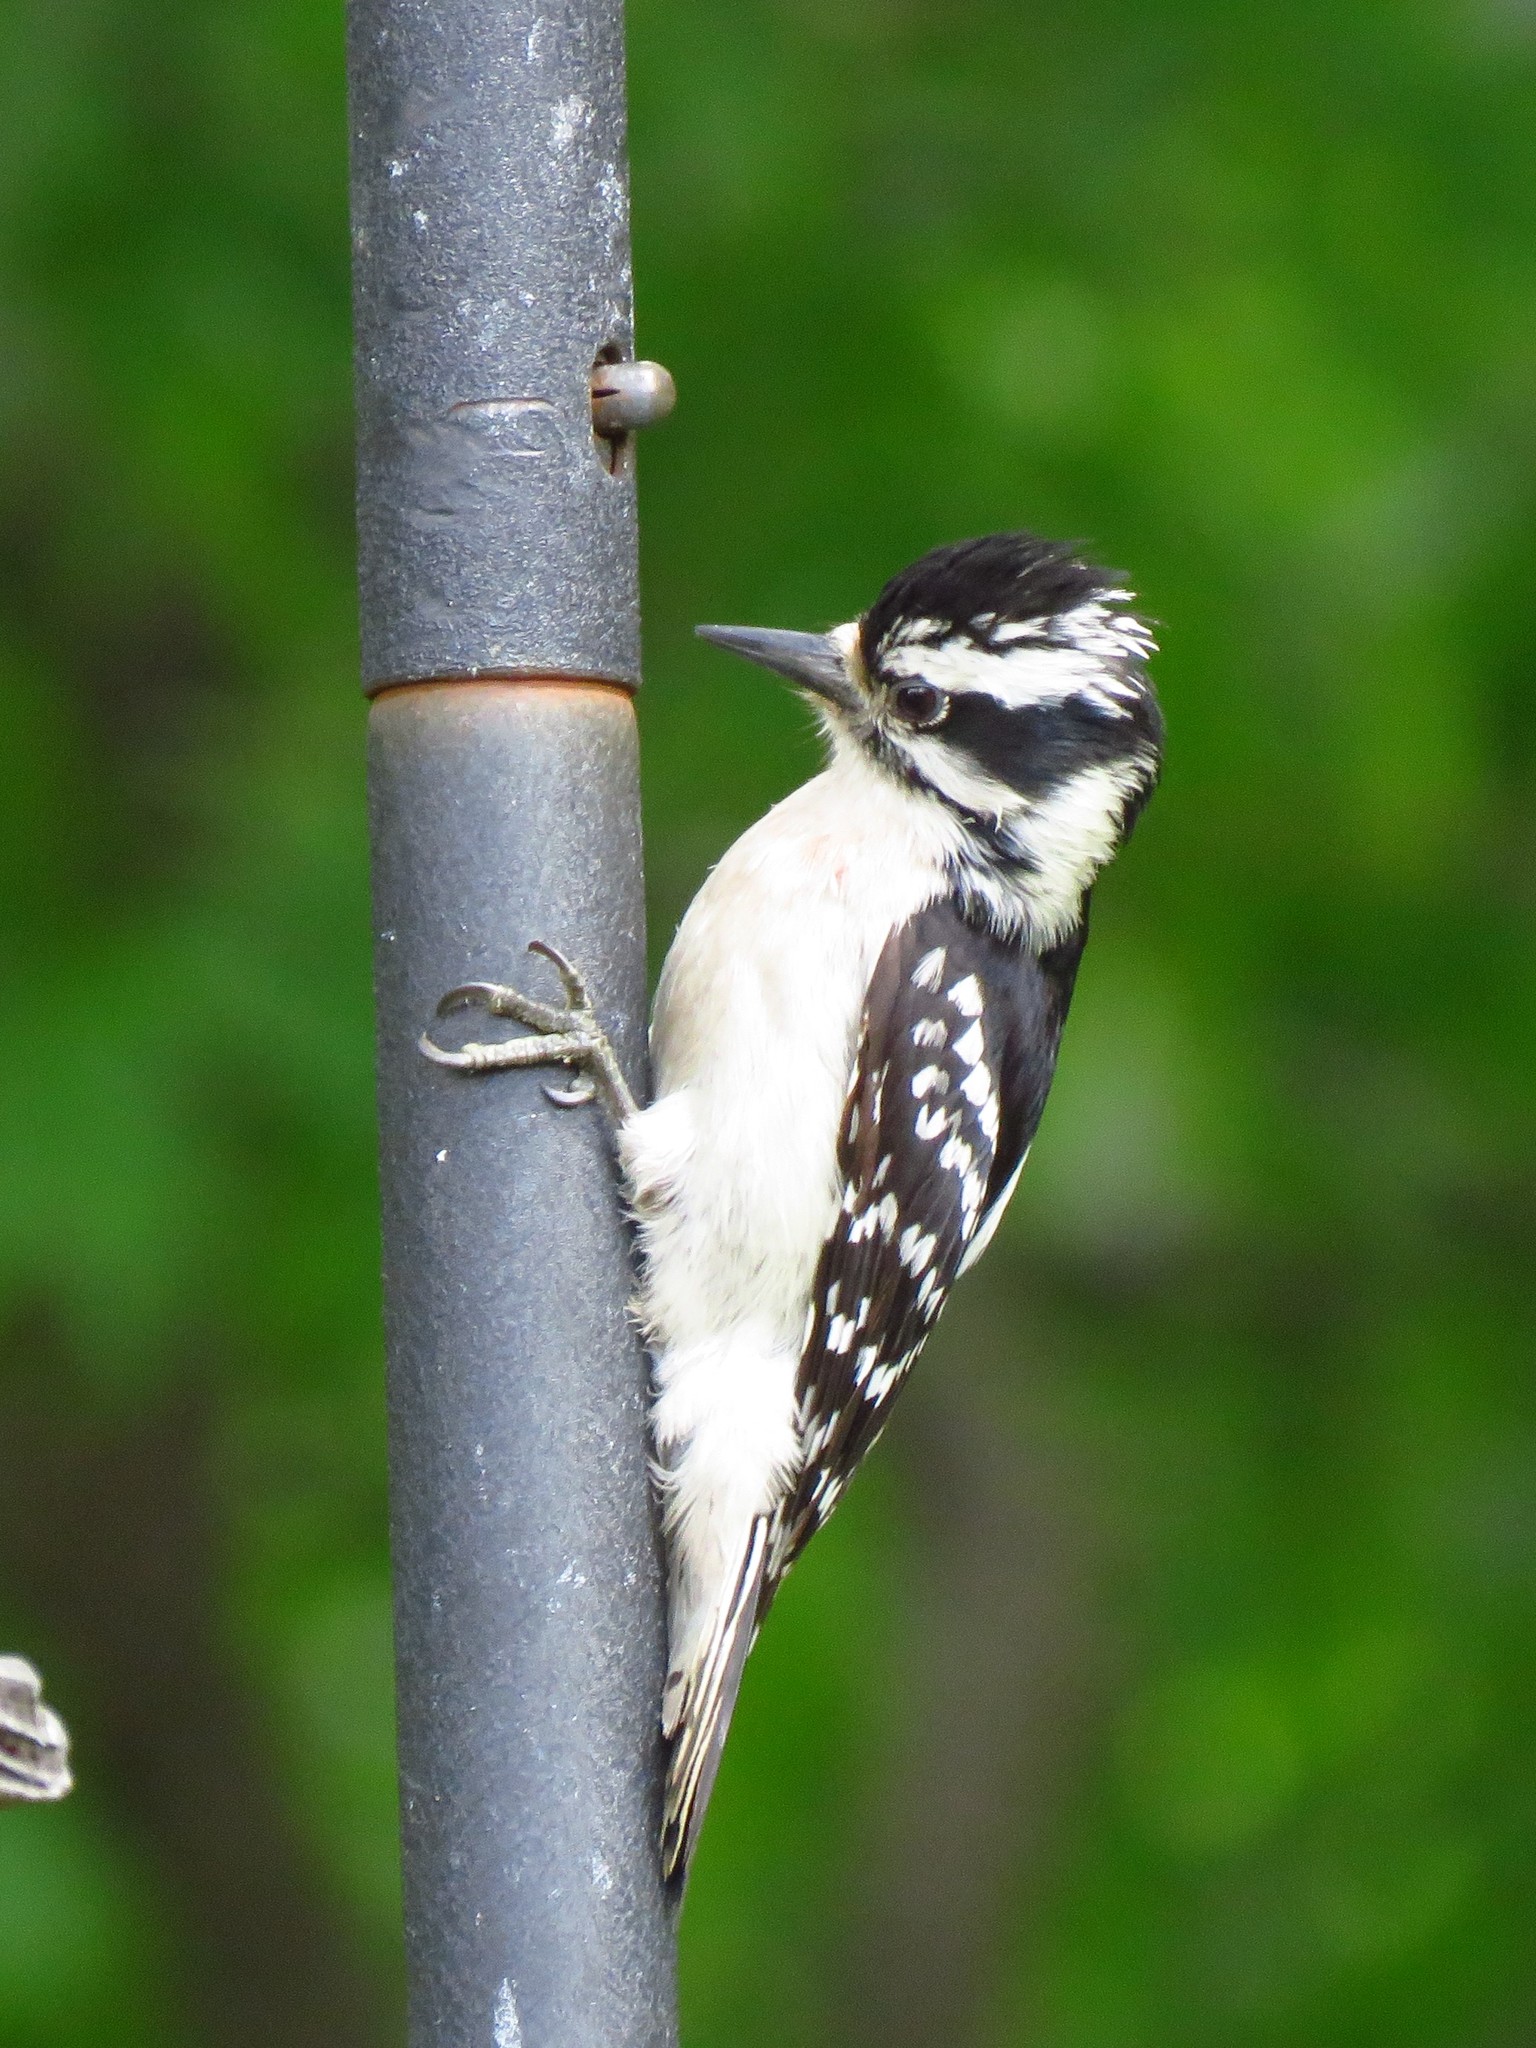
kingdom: Animalia
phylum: Chordata
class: Aves
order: Piciformes
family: Picidae
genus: Dryobates
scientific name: Dryobates pubescens
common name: Downy woodpecker
